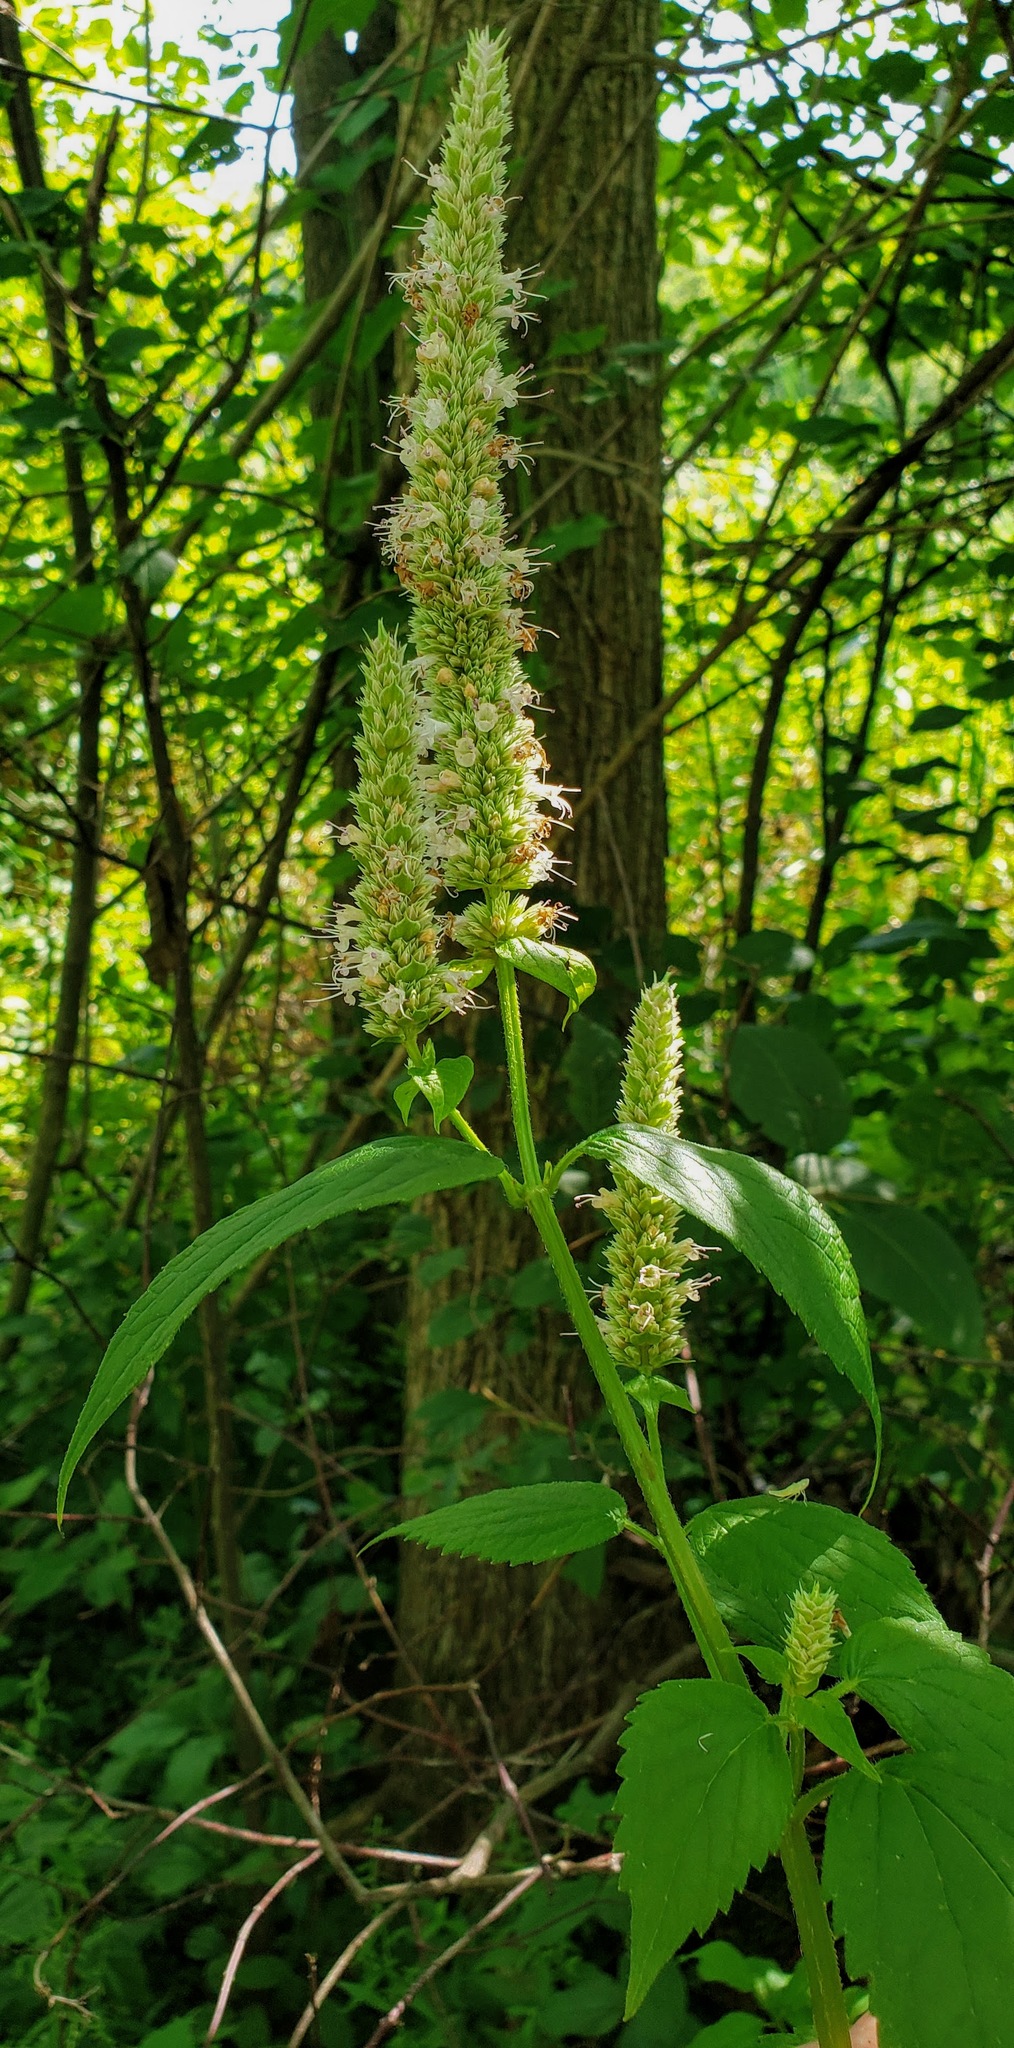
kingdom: Plantae
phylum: Tracheophyta
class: Magnoliopsida
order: Lamiales
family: Lamiaceae
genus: Agastache
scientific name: Agastache scrophulariifolia
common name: Figwort giant hyssop
